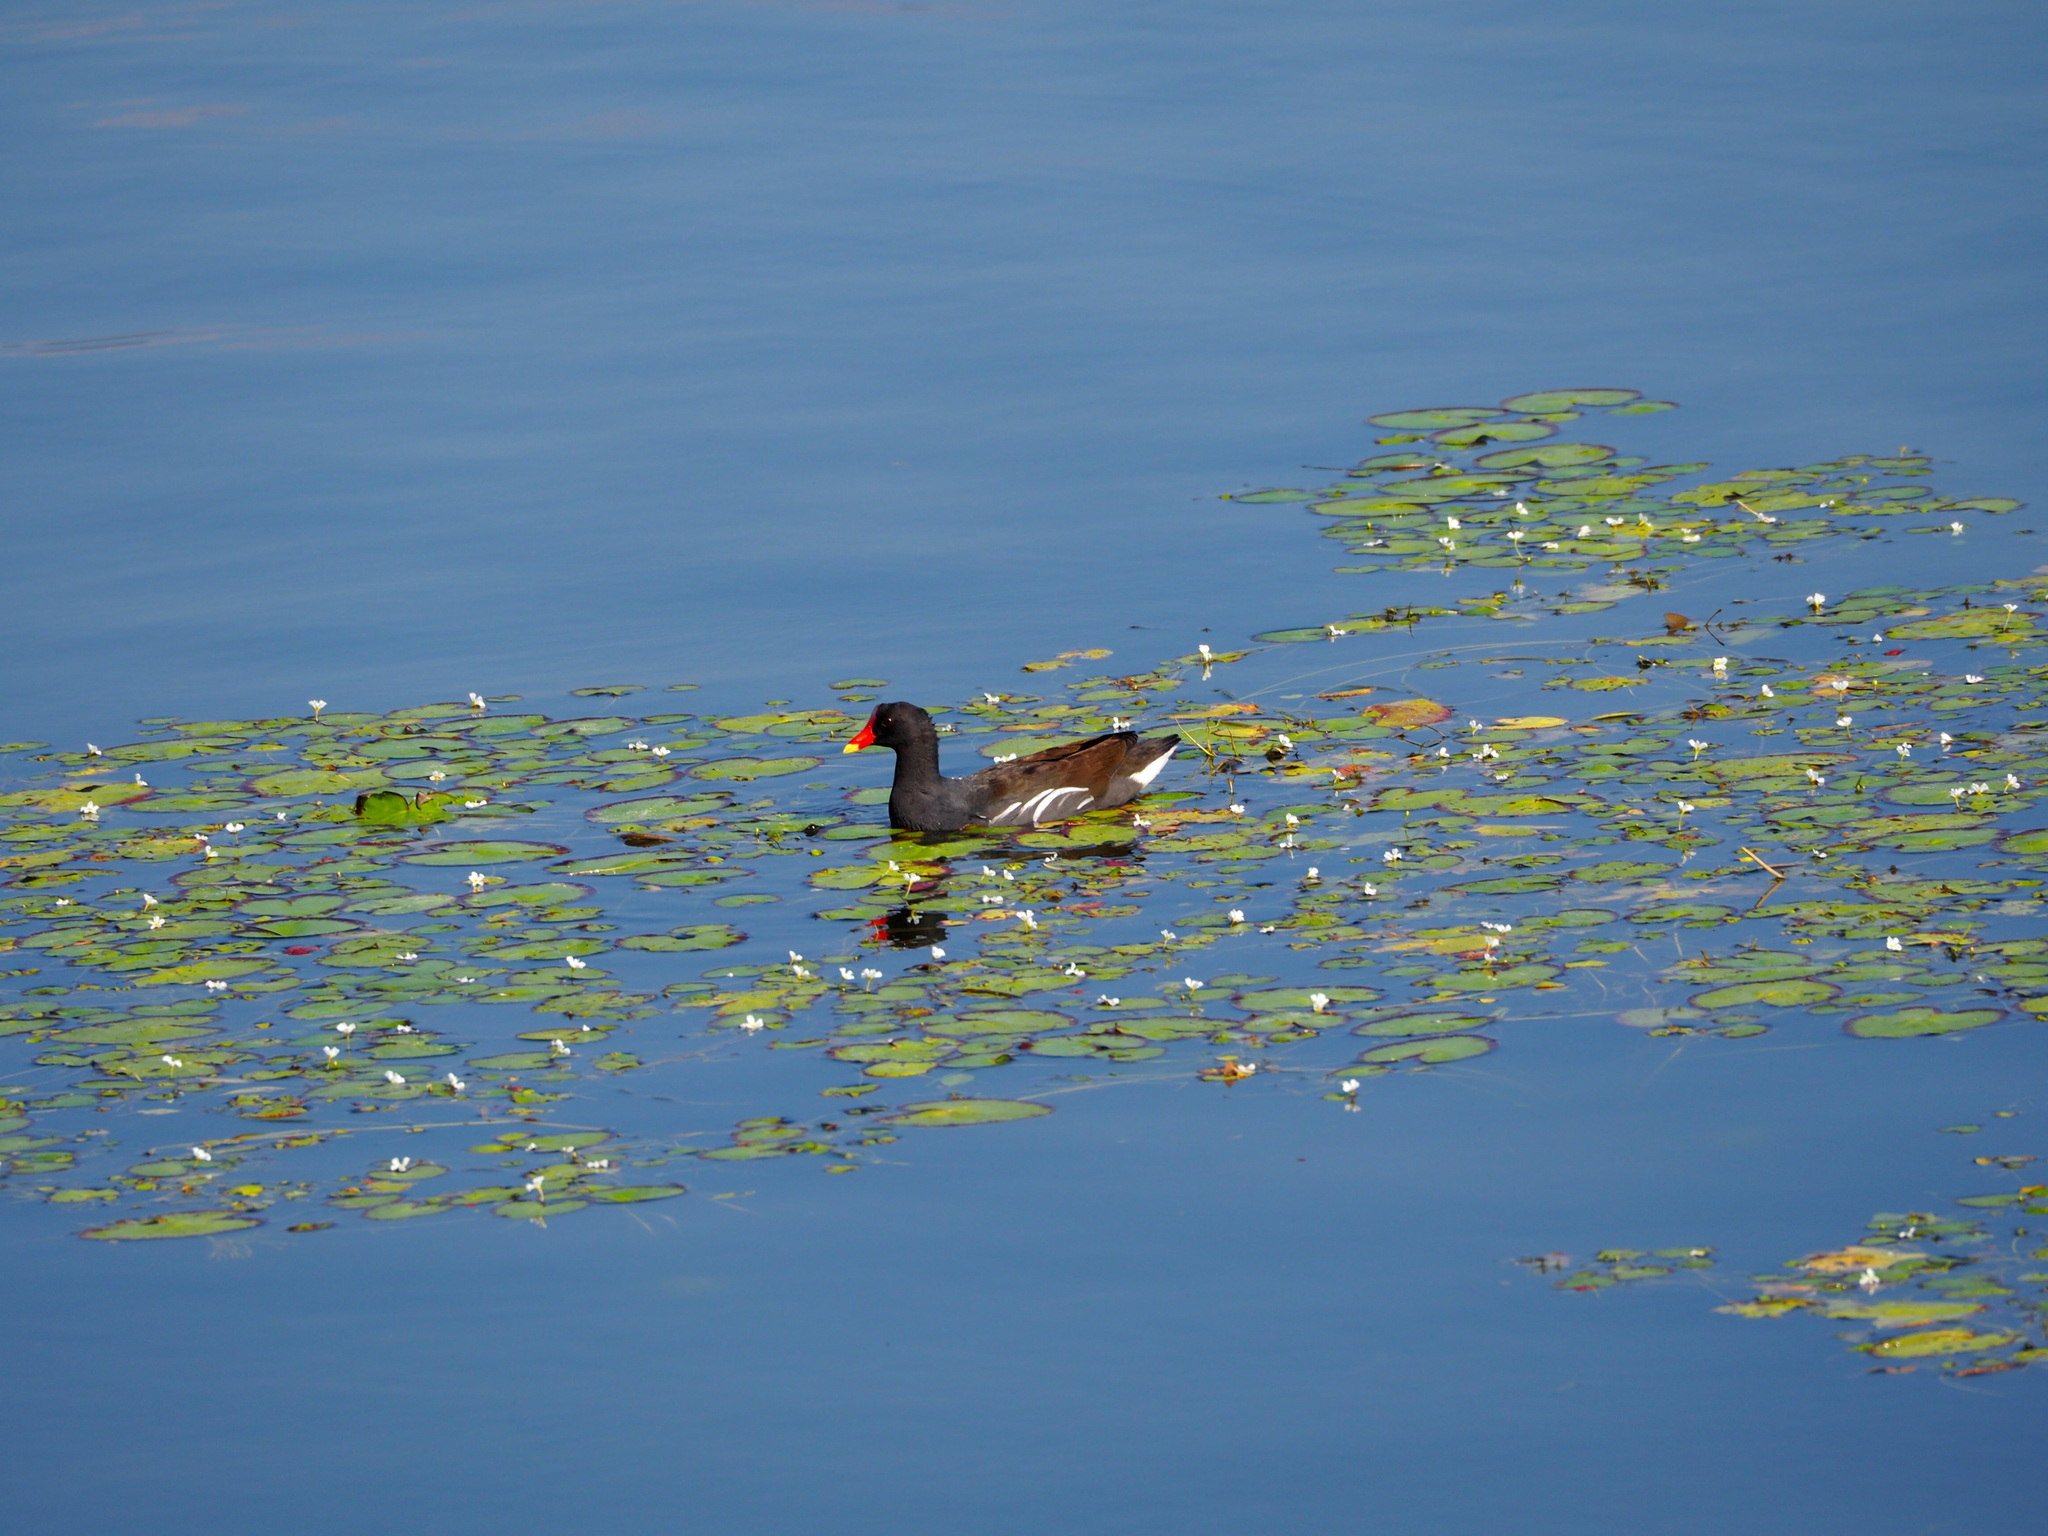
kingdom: Animalia
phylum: Chordata
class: Aves
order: Gruiformes
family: Rallidae
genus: Gallinula
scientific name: Gallinula chloropus
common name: Common moorhen
